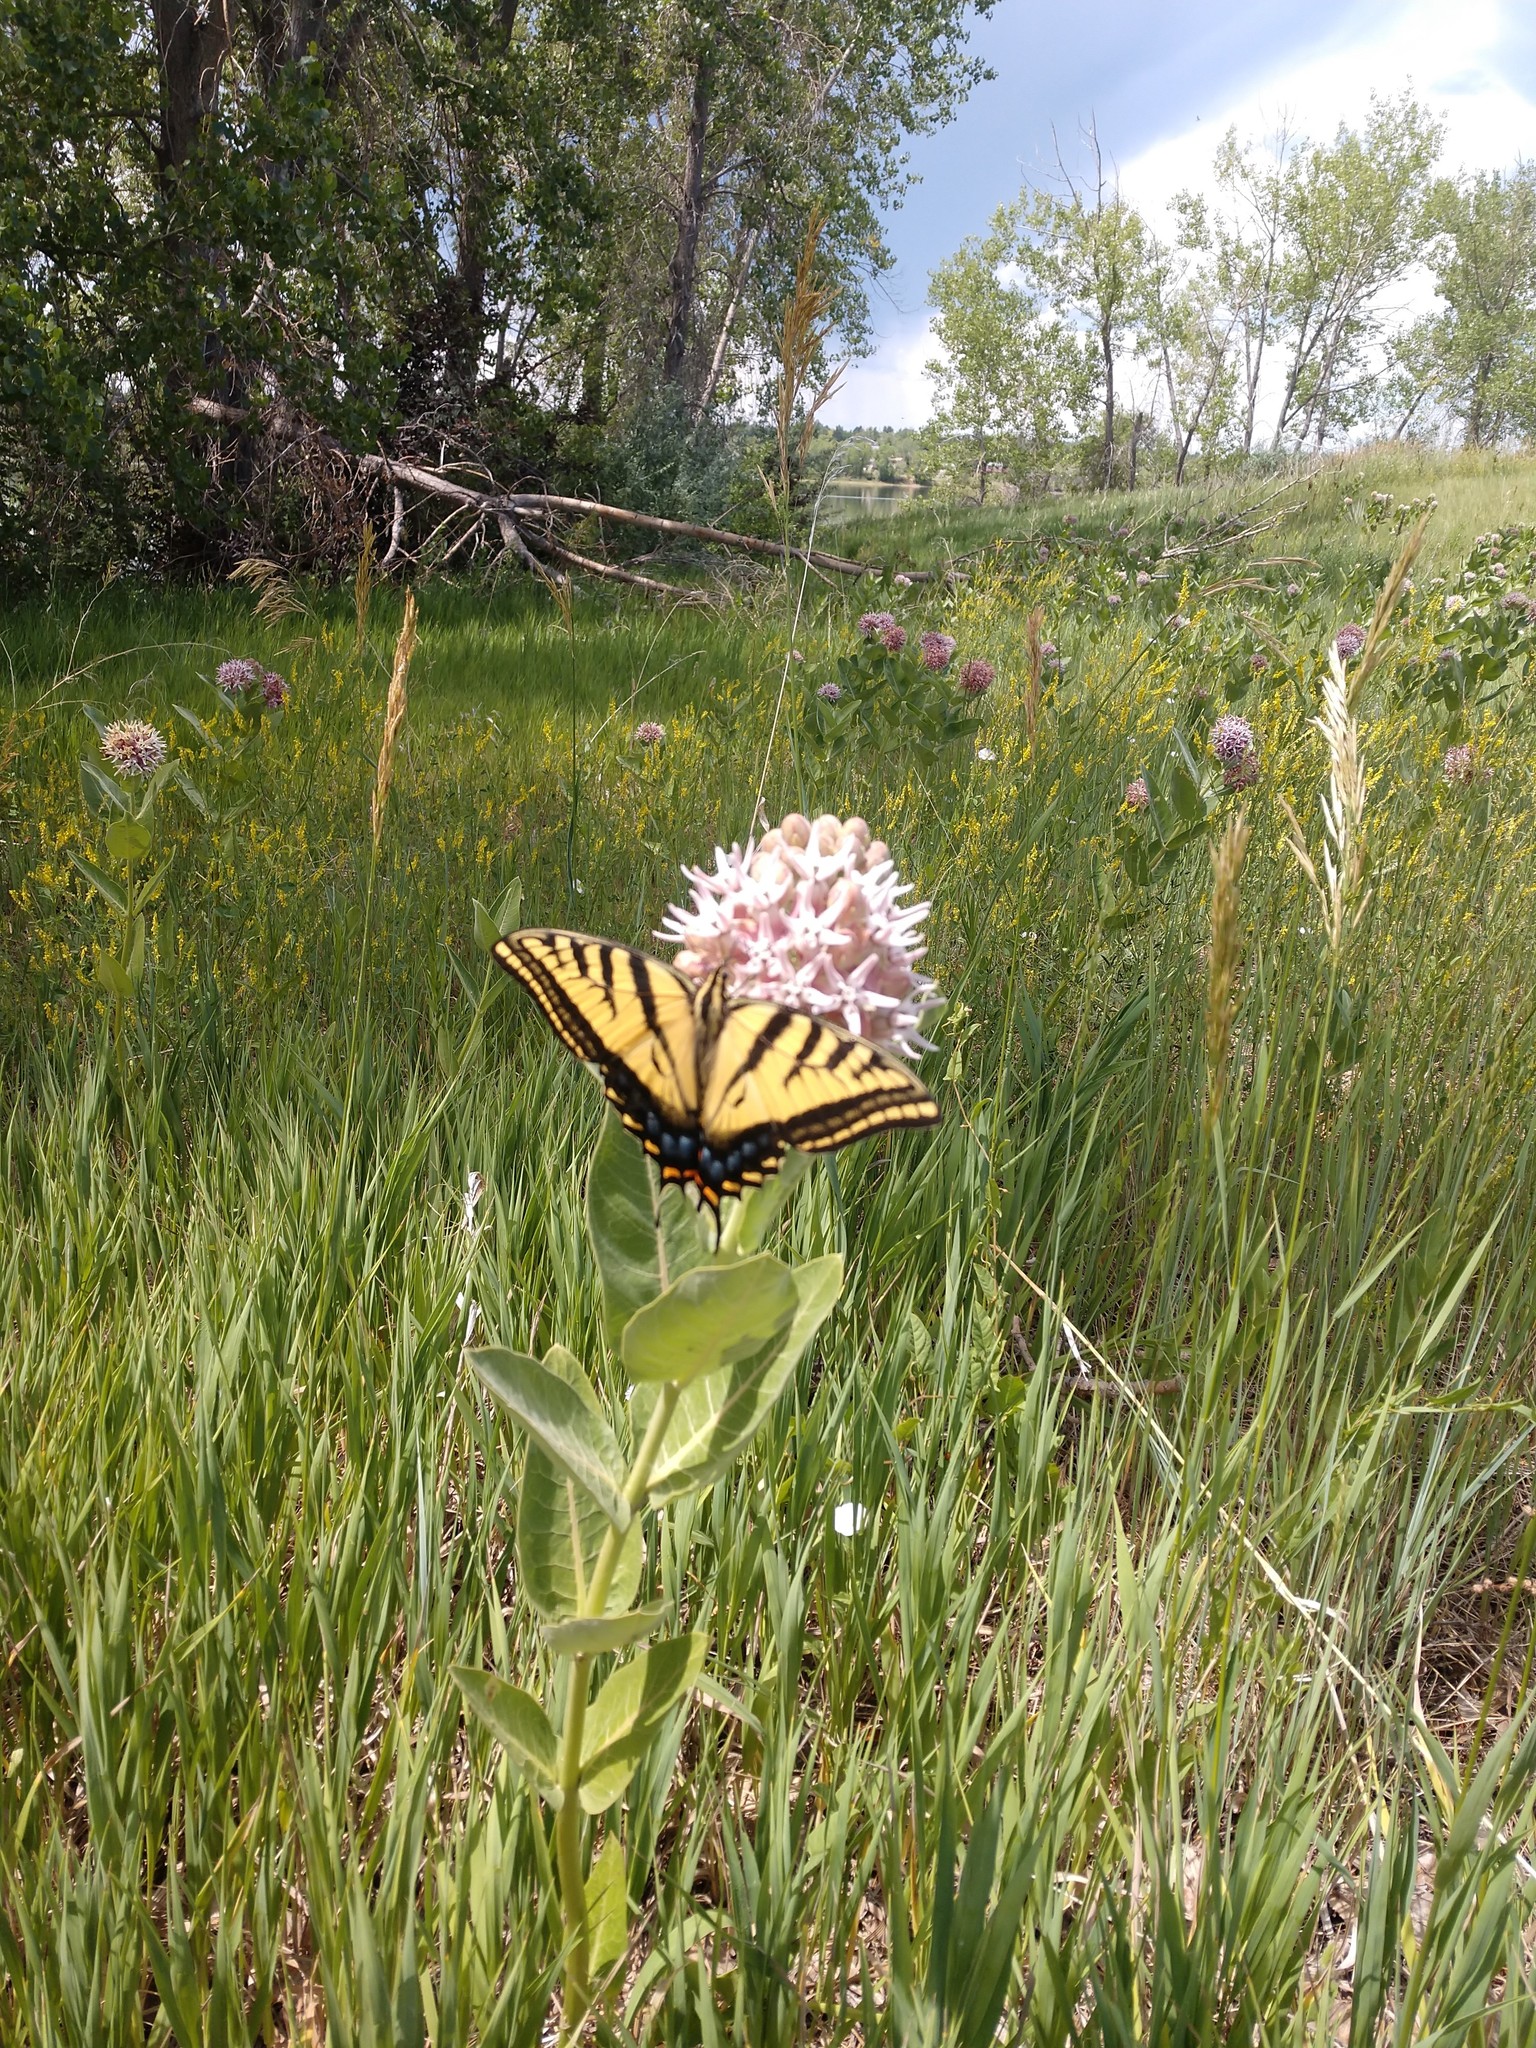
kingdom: Animalia
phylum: Arthropoda
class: Insecta
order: Lepidoptera
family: Papilionidae
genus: Papilio
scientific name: Papilio multicaudata
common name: Two-tailed tiger swallowtail
